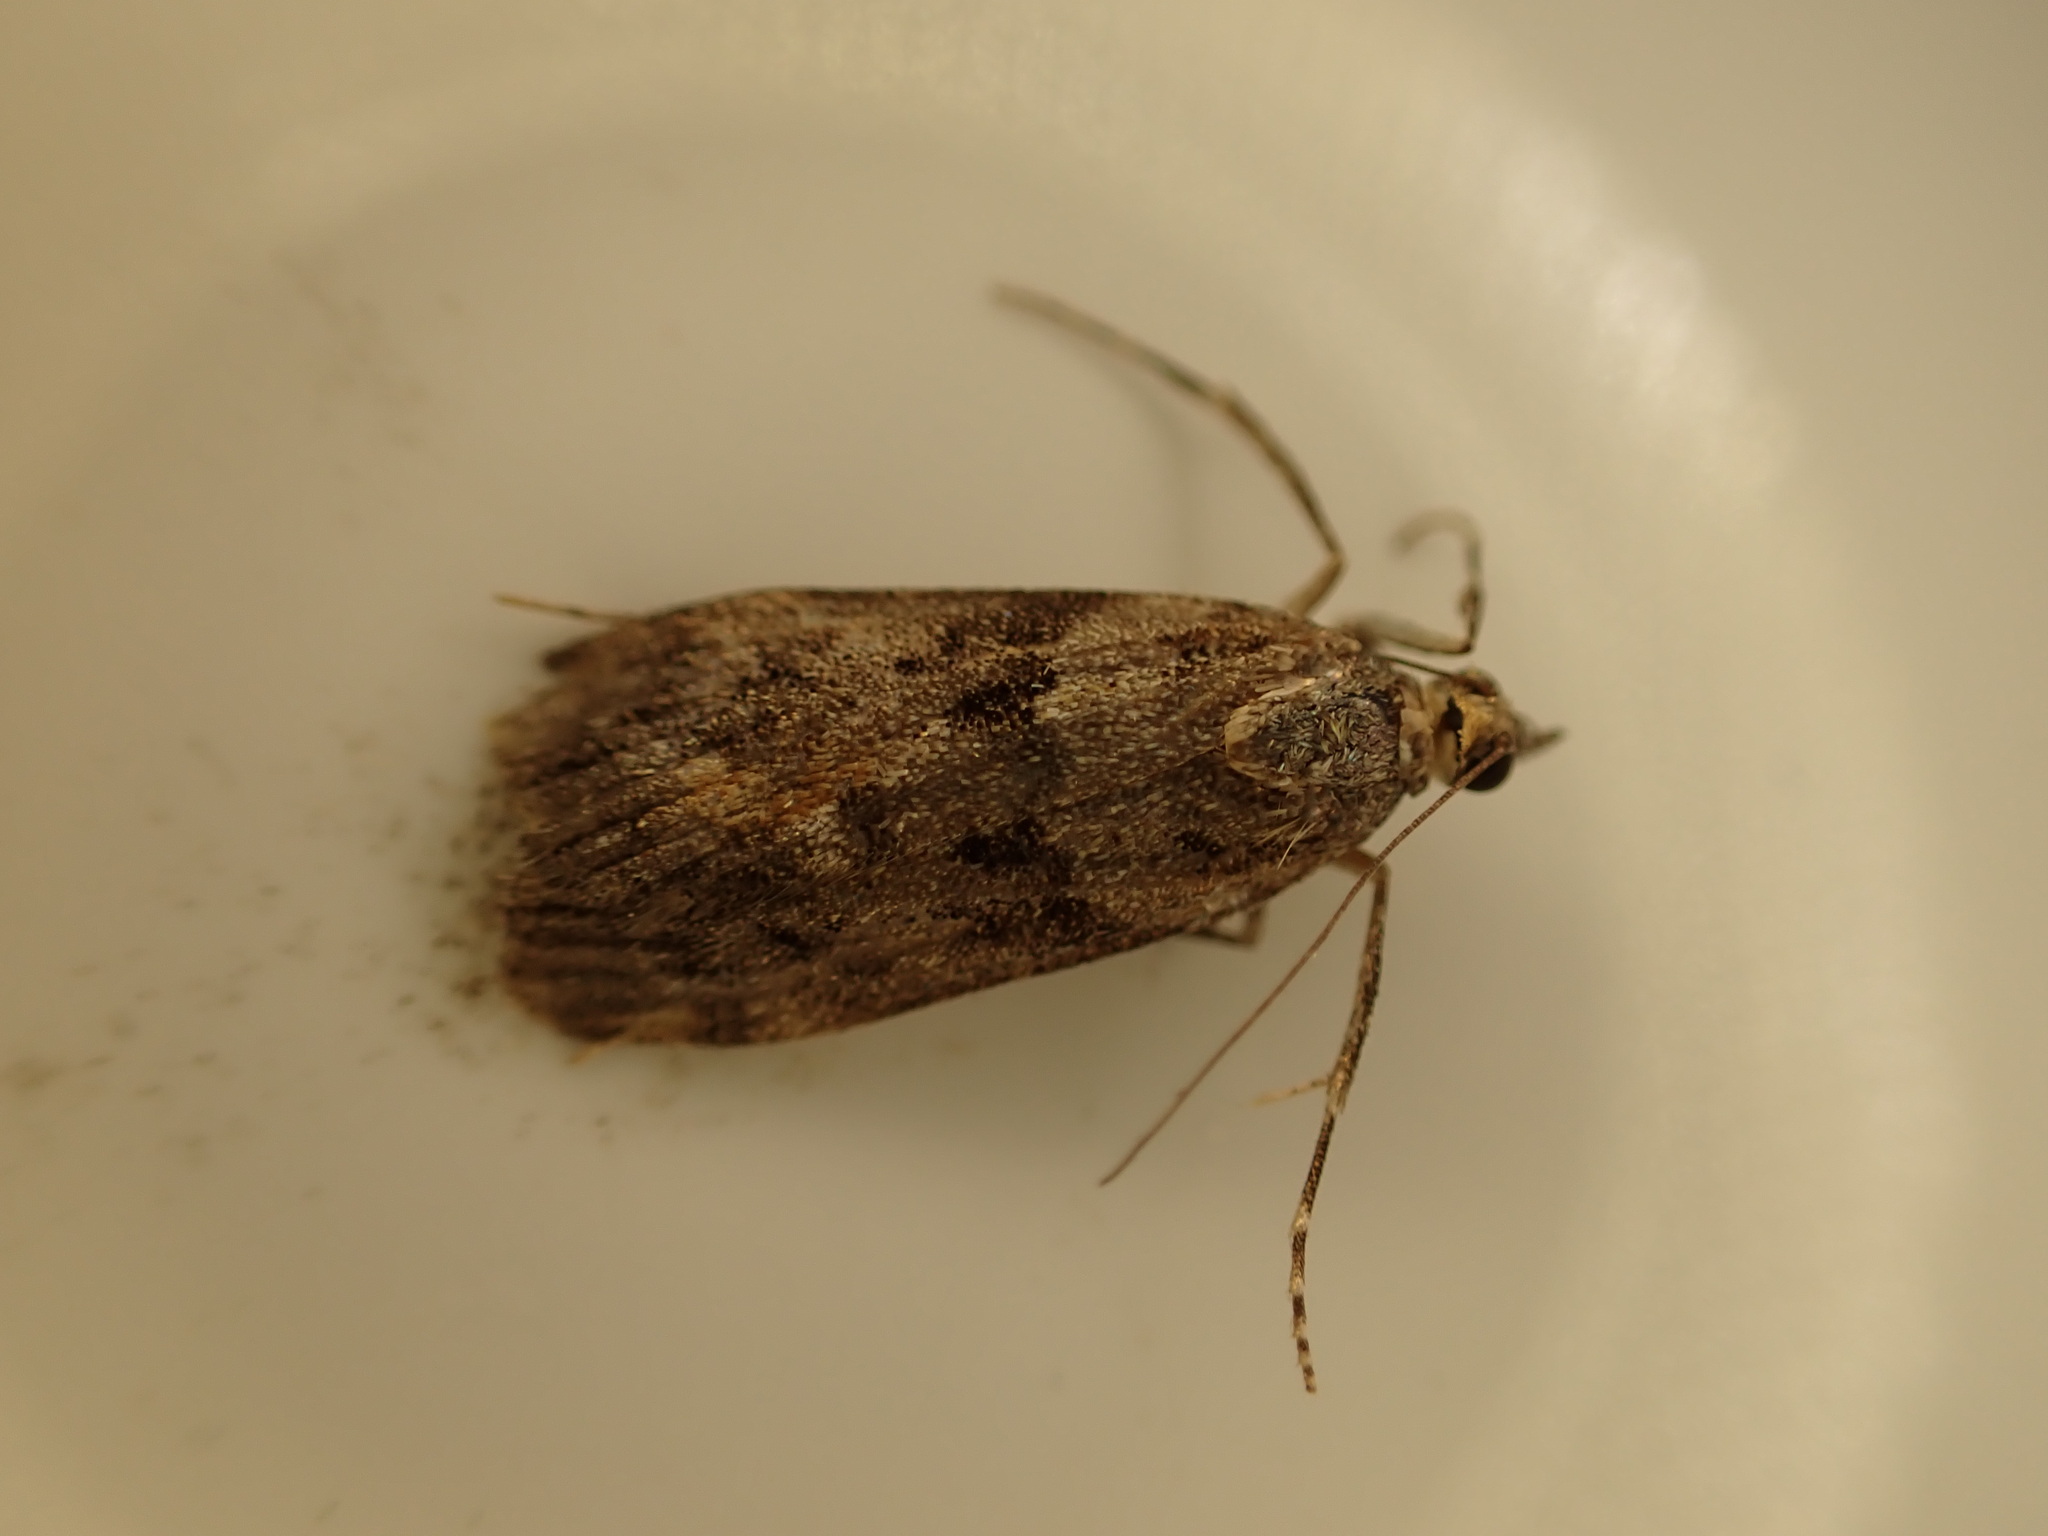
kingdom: Animalia
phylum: Arthropoda
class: Insecta
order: Lepidoptera
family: Crambidae
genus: Eudonia
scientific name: Eudonia submarginalis
